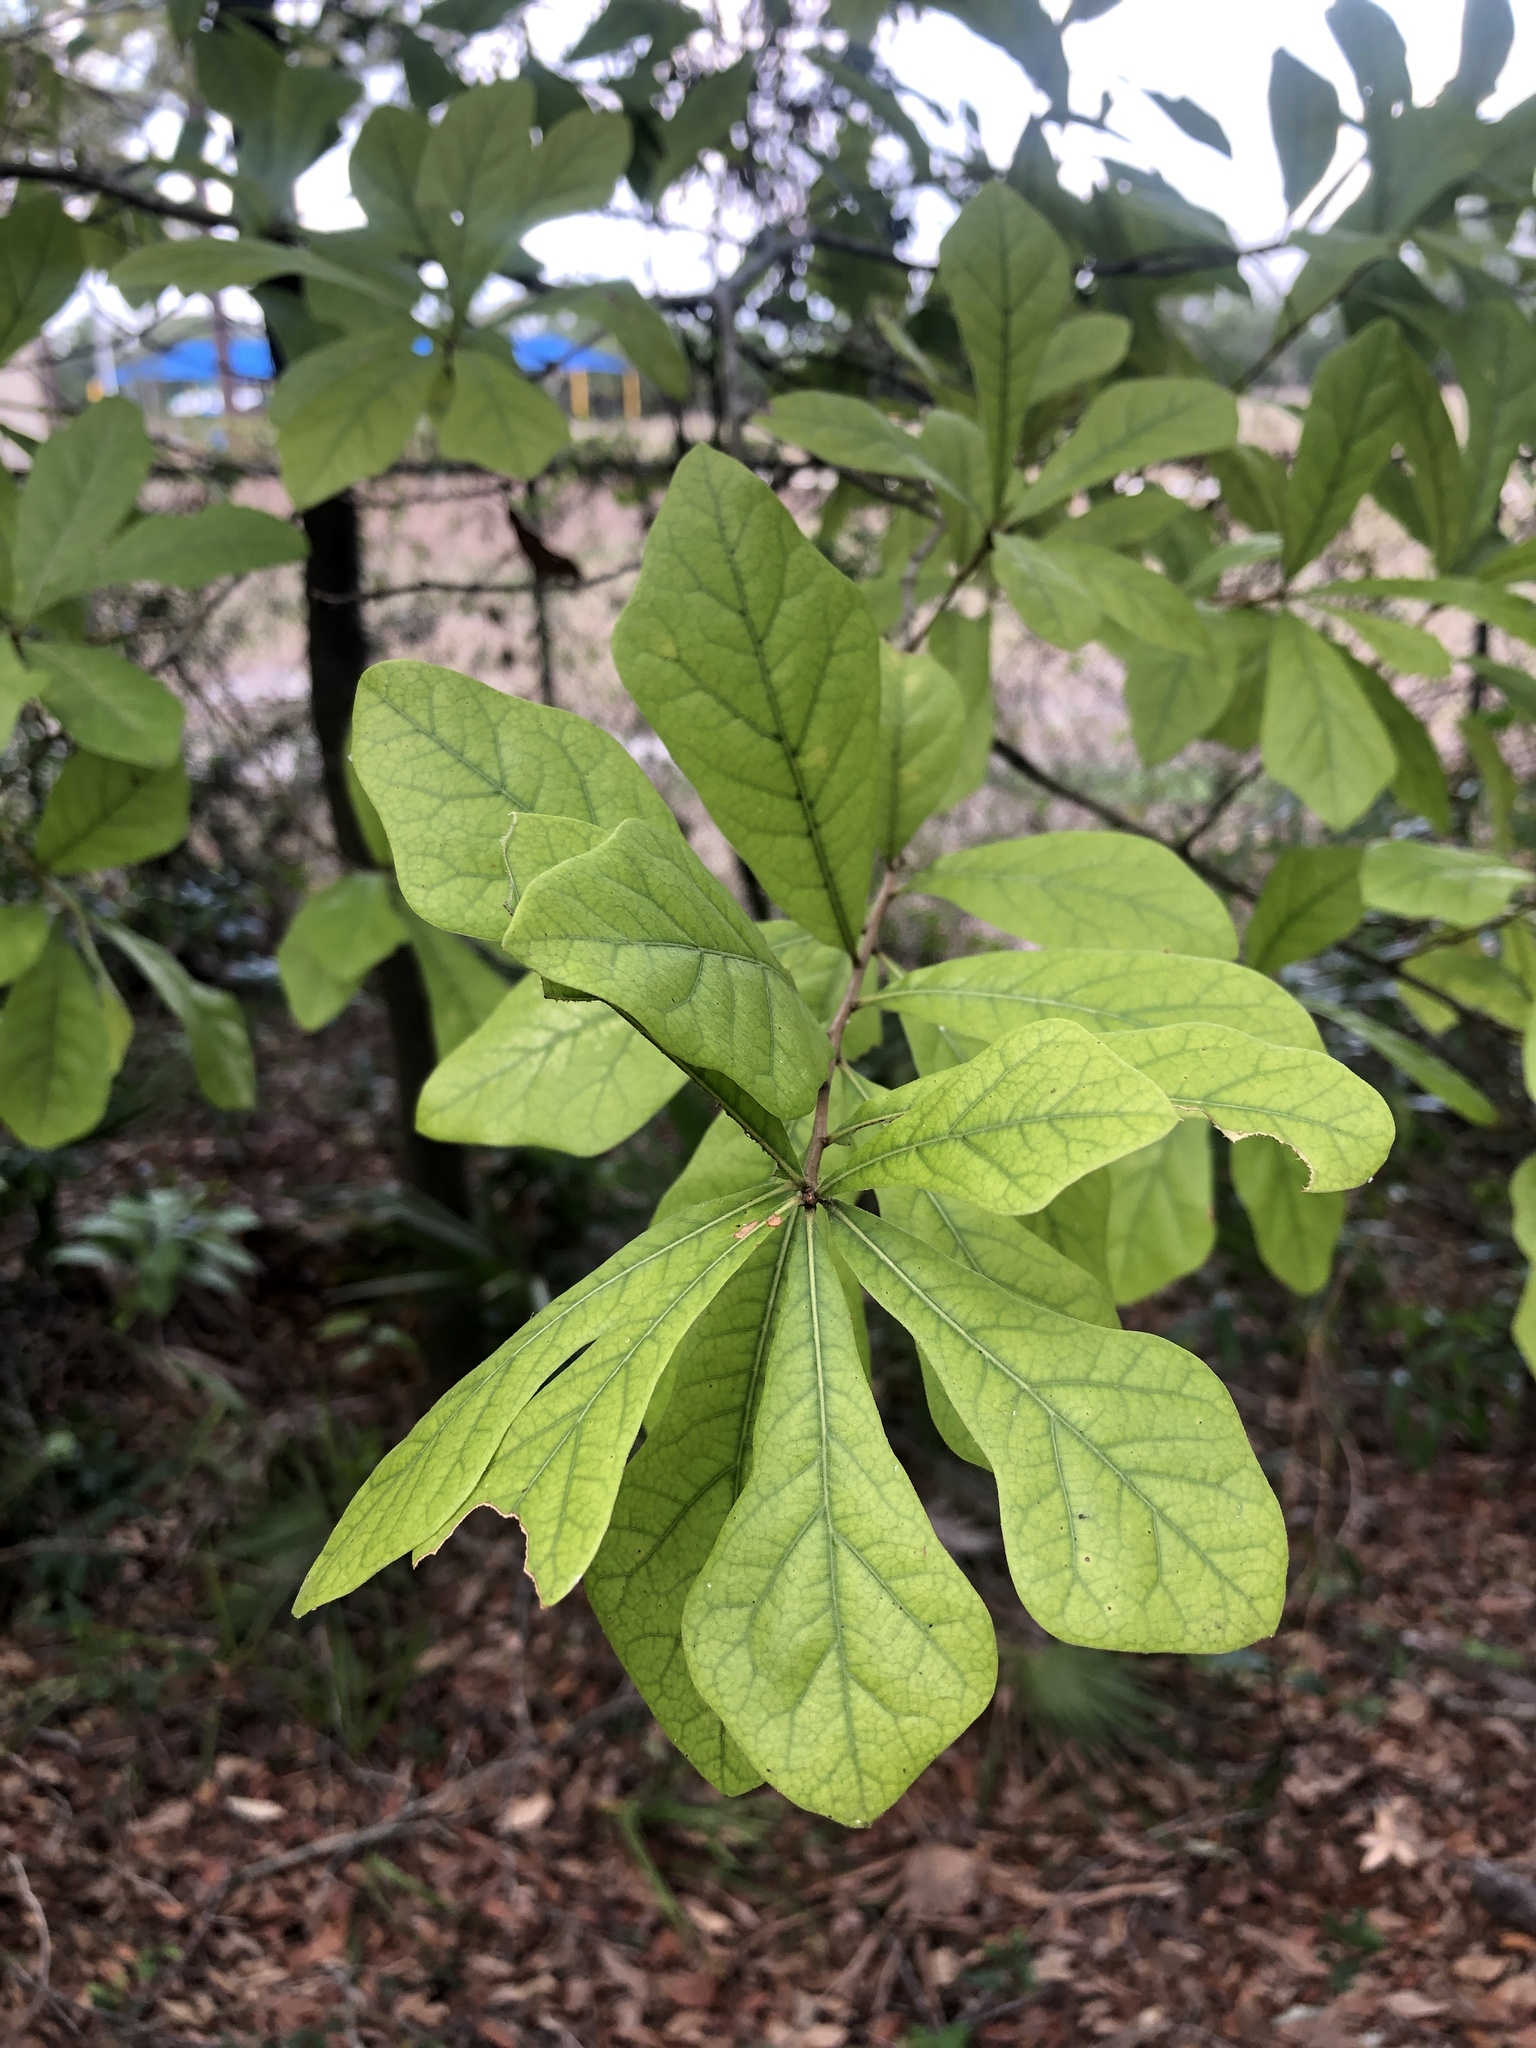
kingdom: Plantae
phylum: Tracheophyta
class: Magnoliopsida
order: Fagales
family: Fagaceae
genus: Quercus
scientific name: Quercus nigra
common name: Water oak
